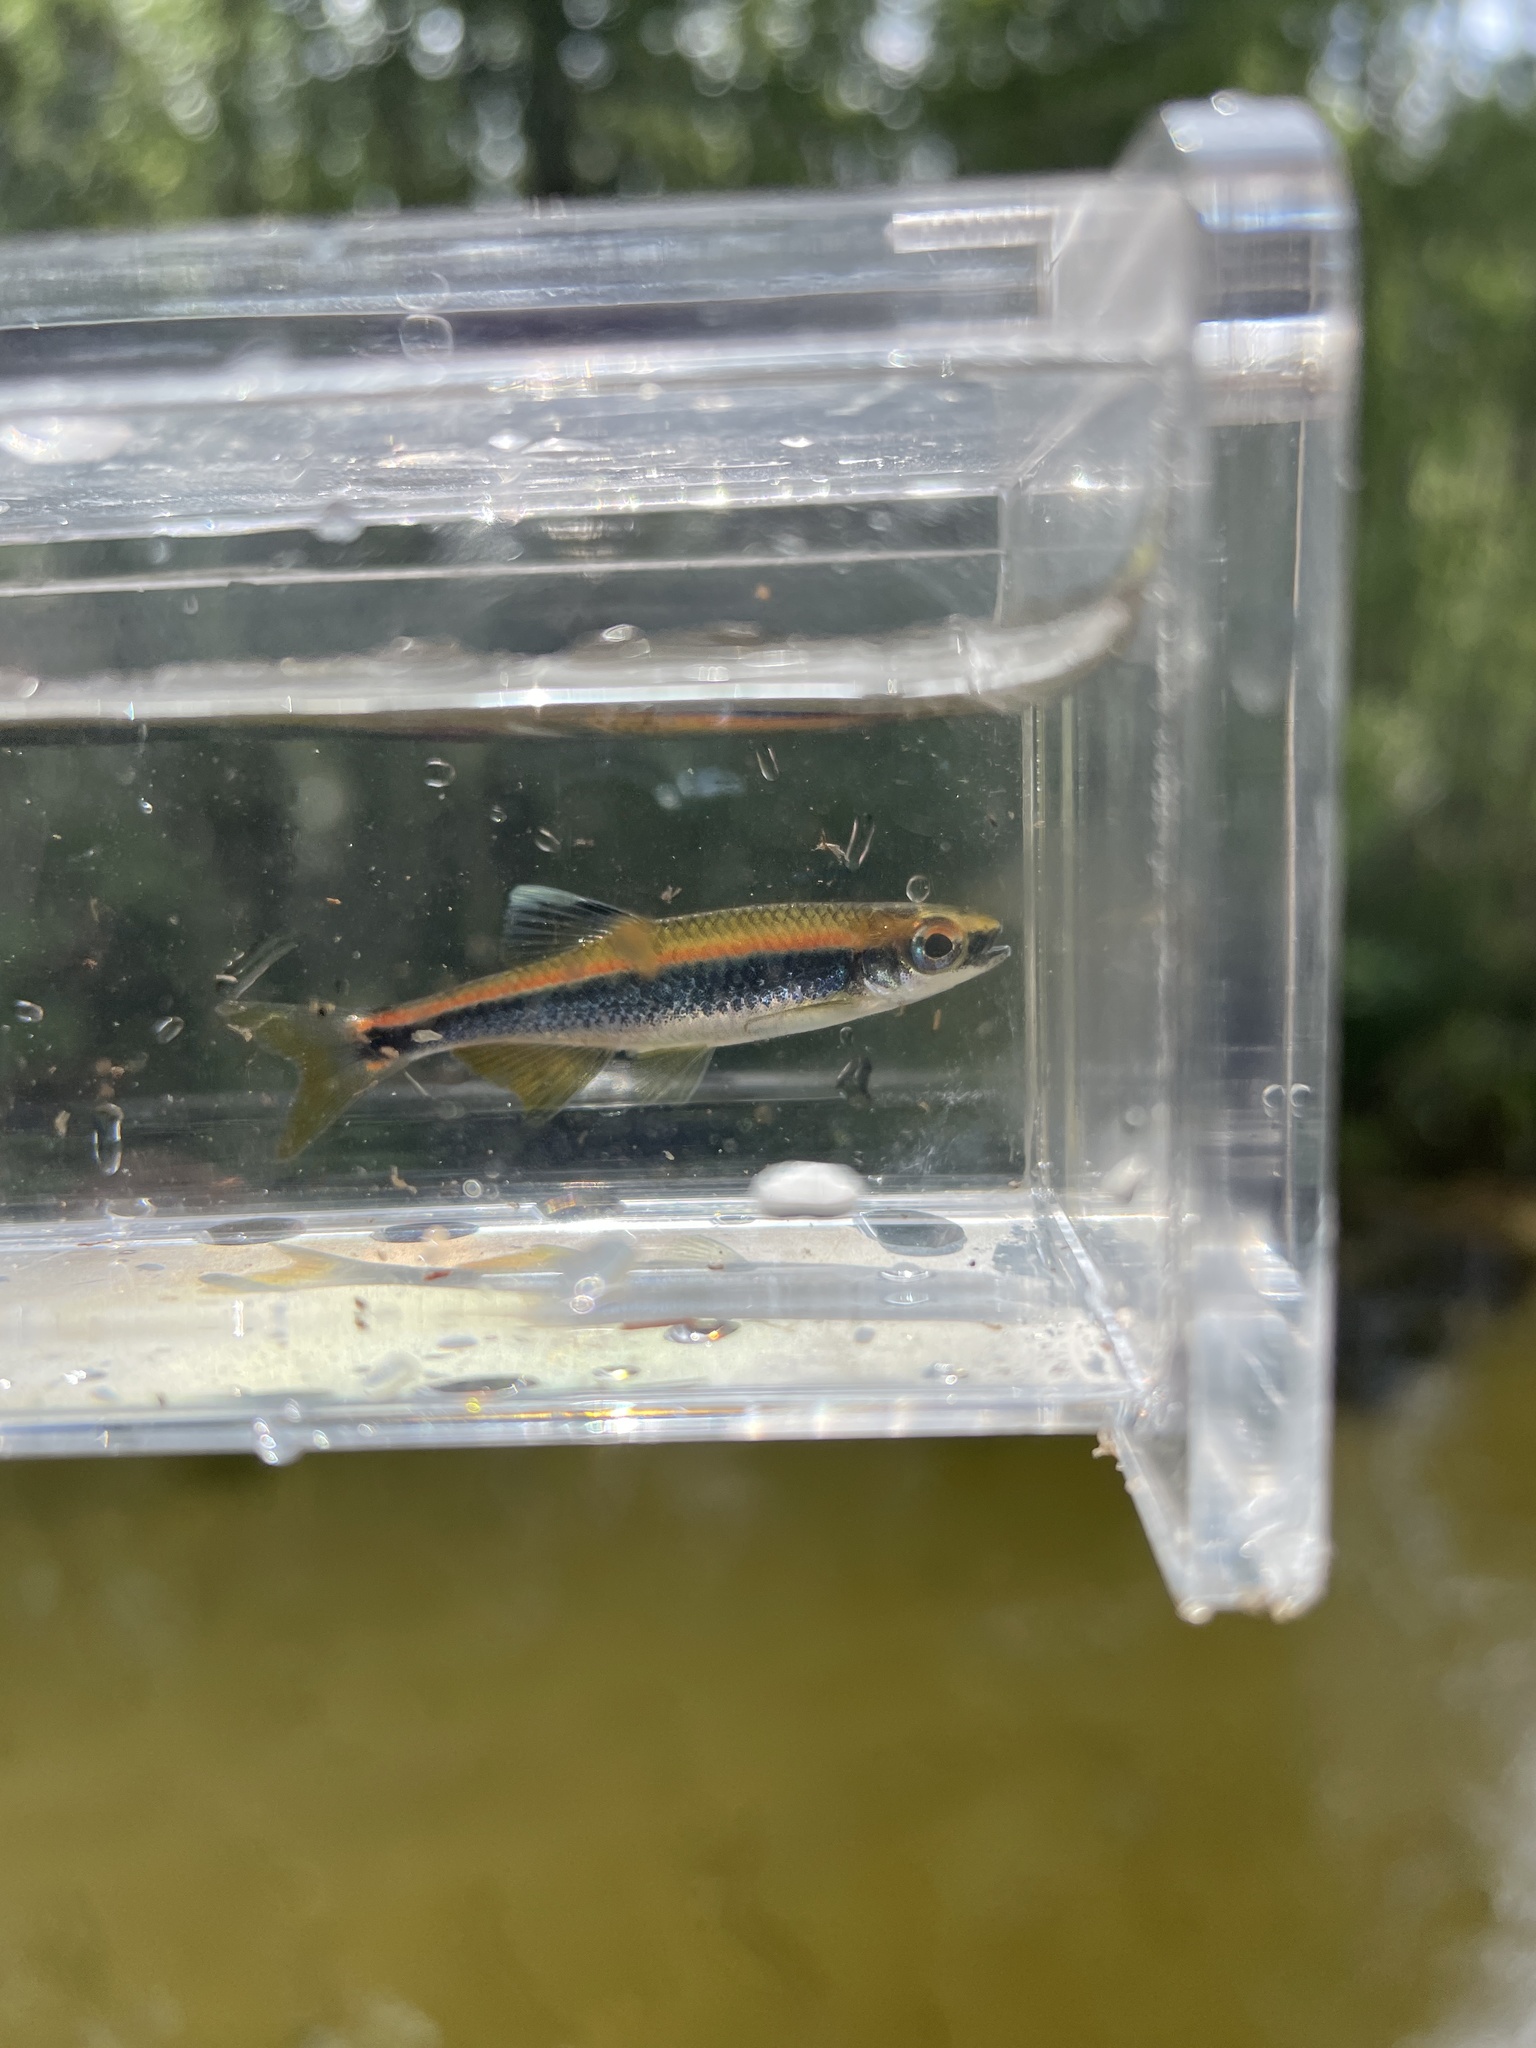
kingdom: Animalia
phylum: Chordata
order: Cypriniformes
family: Cyprinidae
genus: Pteronotropis
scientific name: Pteronotropis hypselopterus
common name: Sailfin shiner
